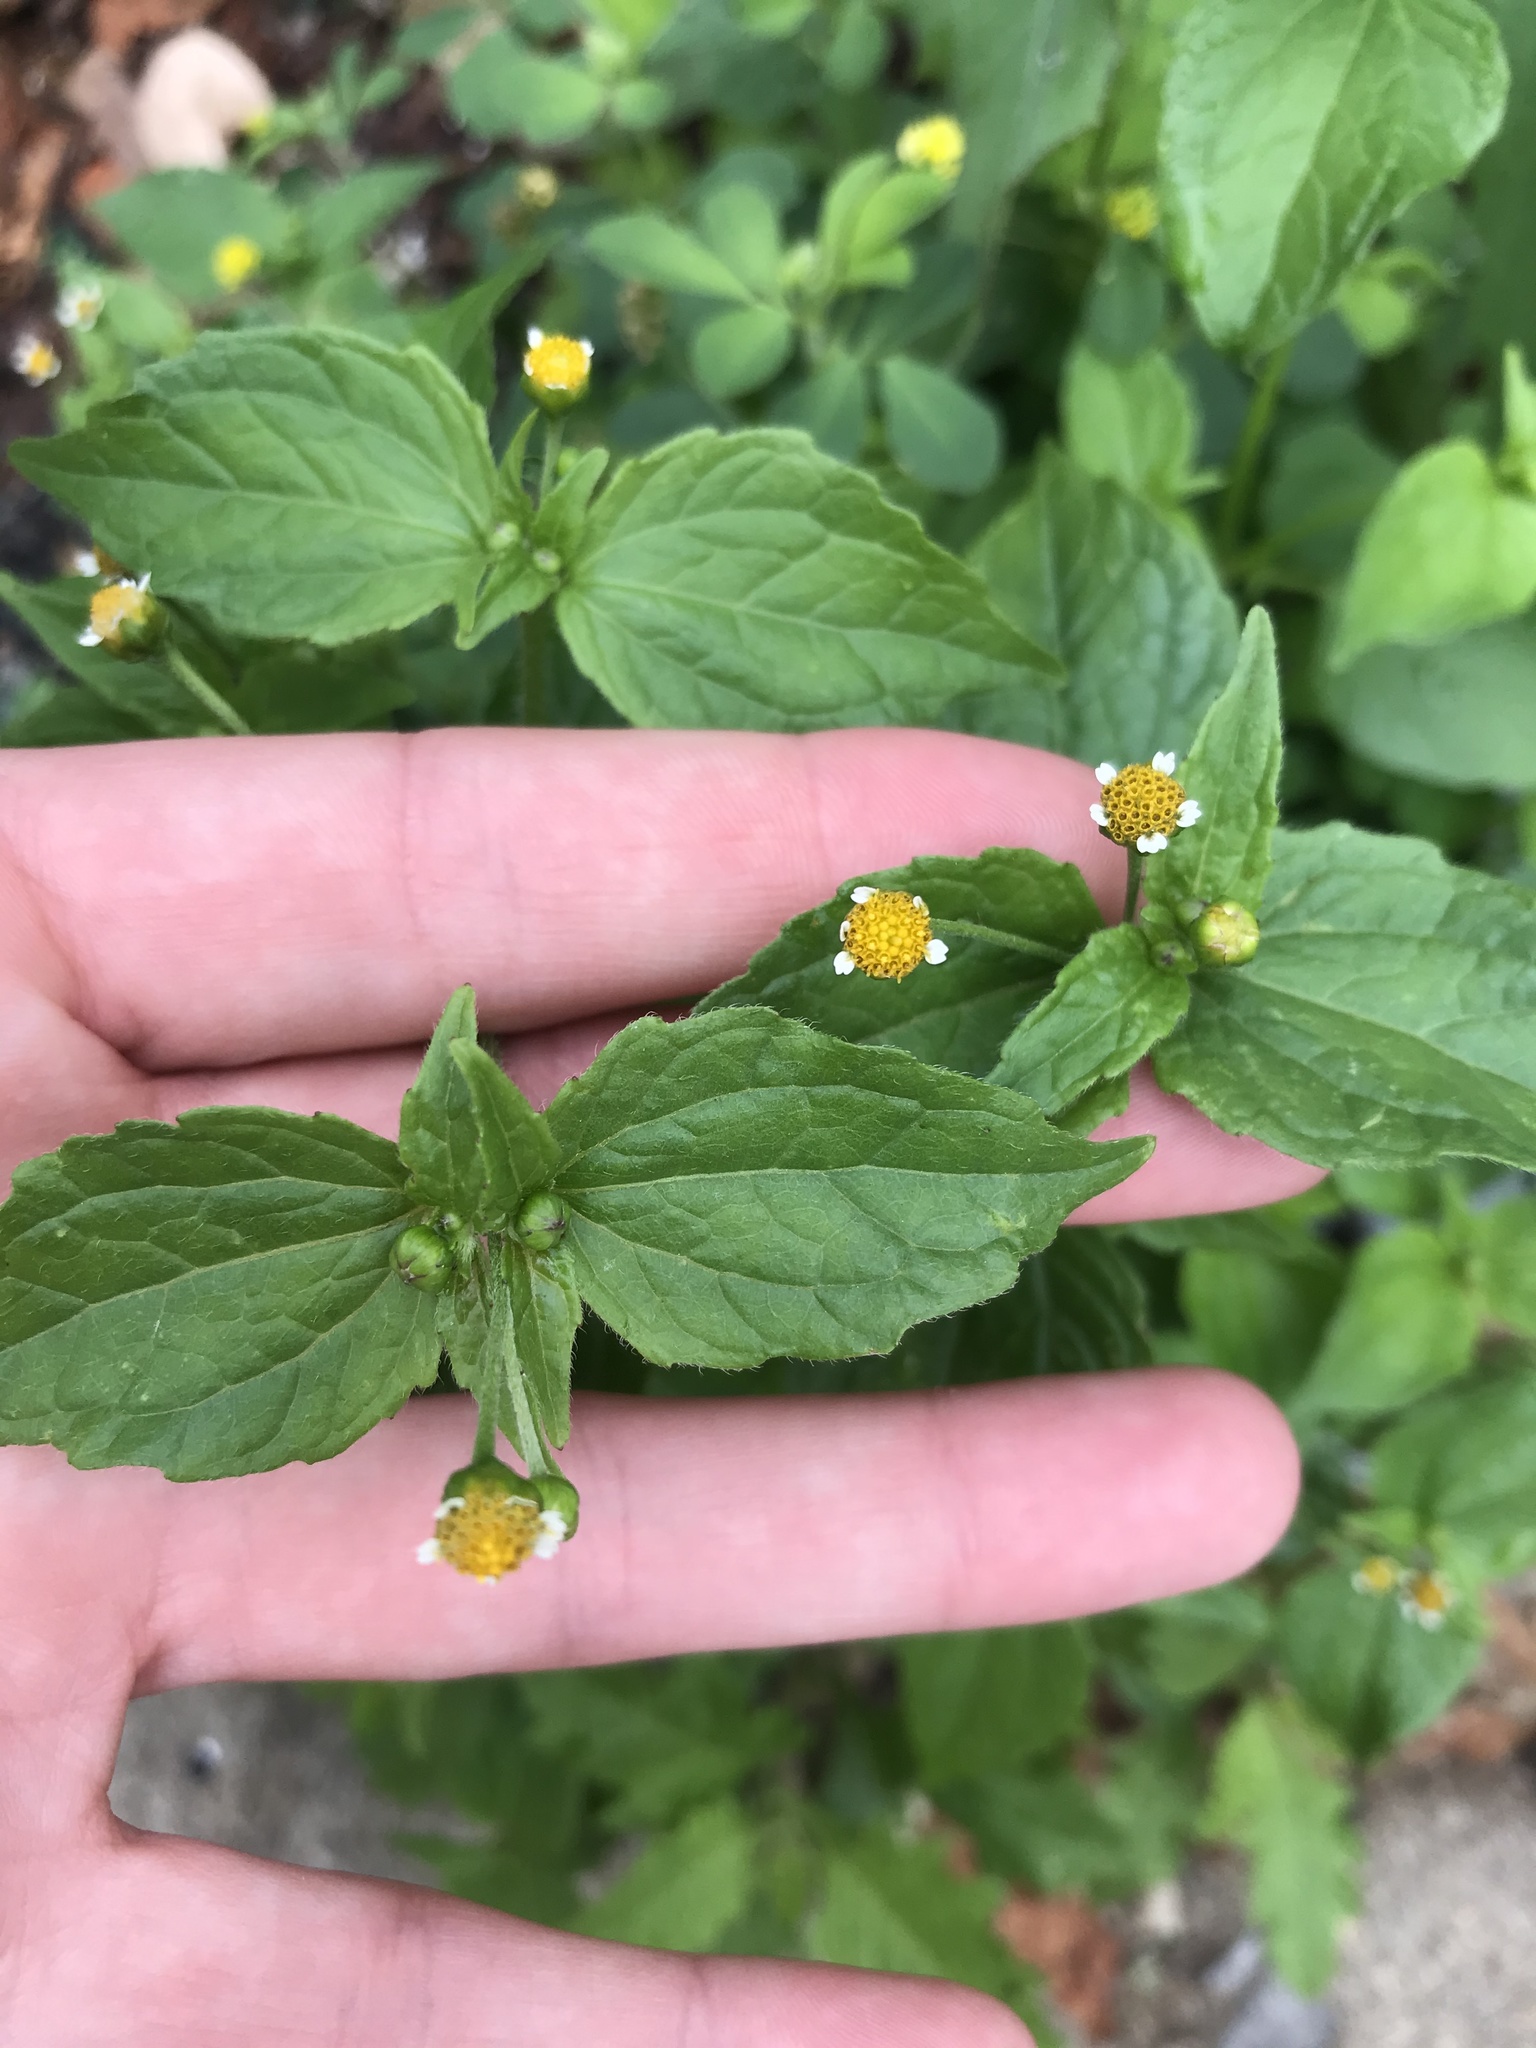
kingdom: Plantae
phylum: Tracheophyta
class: Magnoliopsida
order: Asterales
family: Asteraceae
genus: Galinsoga
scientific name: Galinsoga quadriradiata
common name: Shaggy soldier
